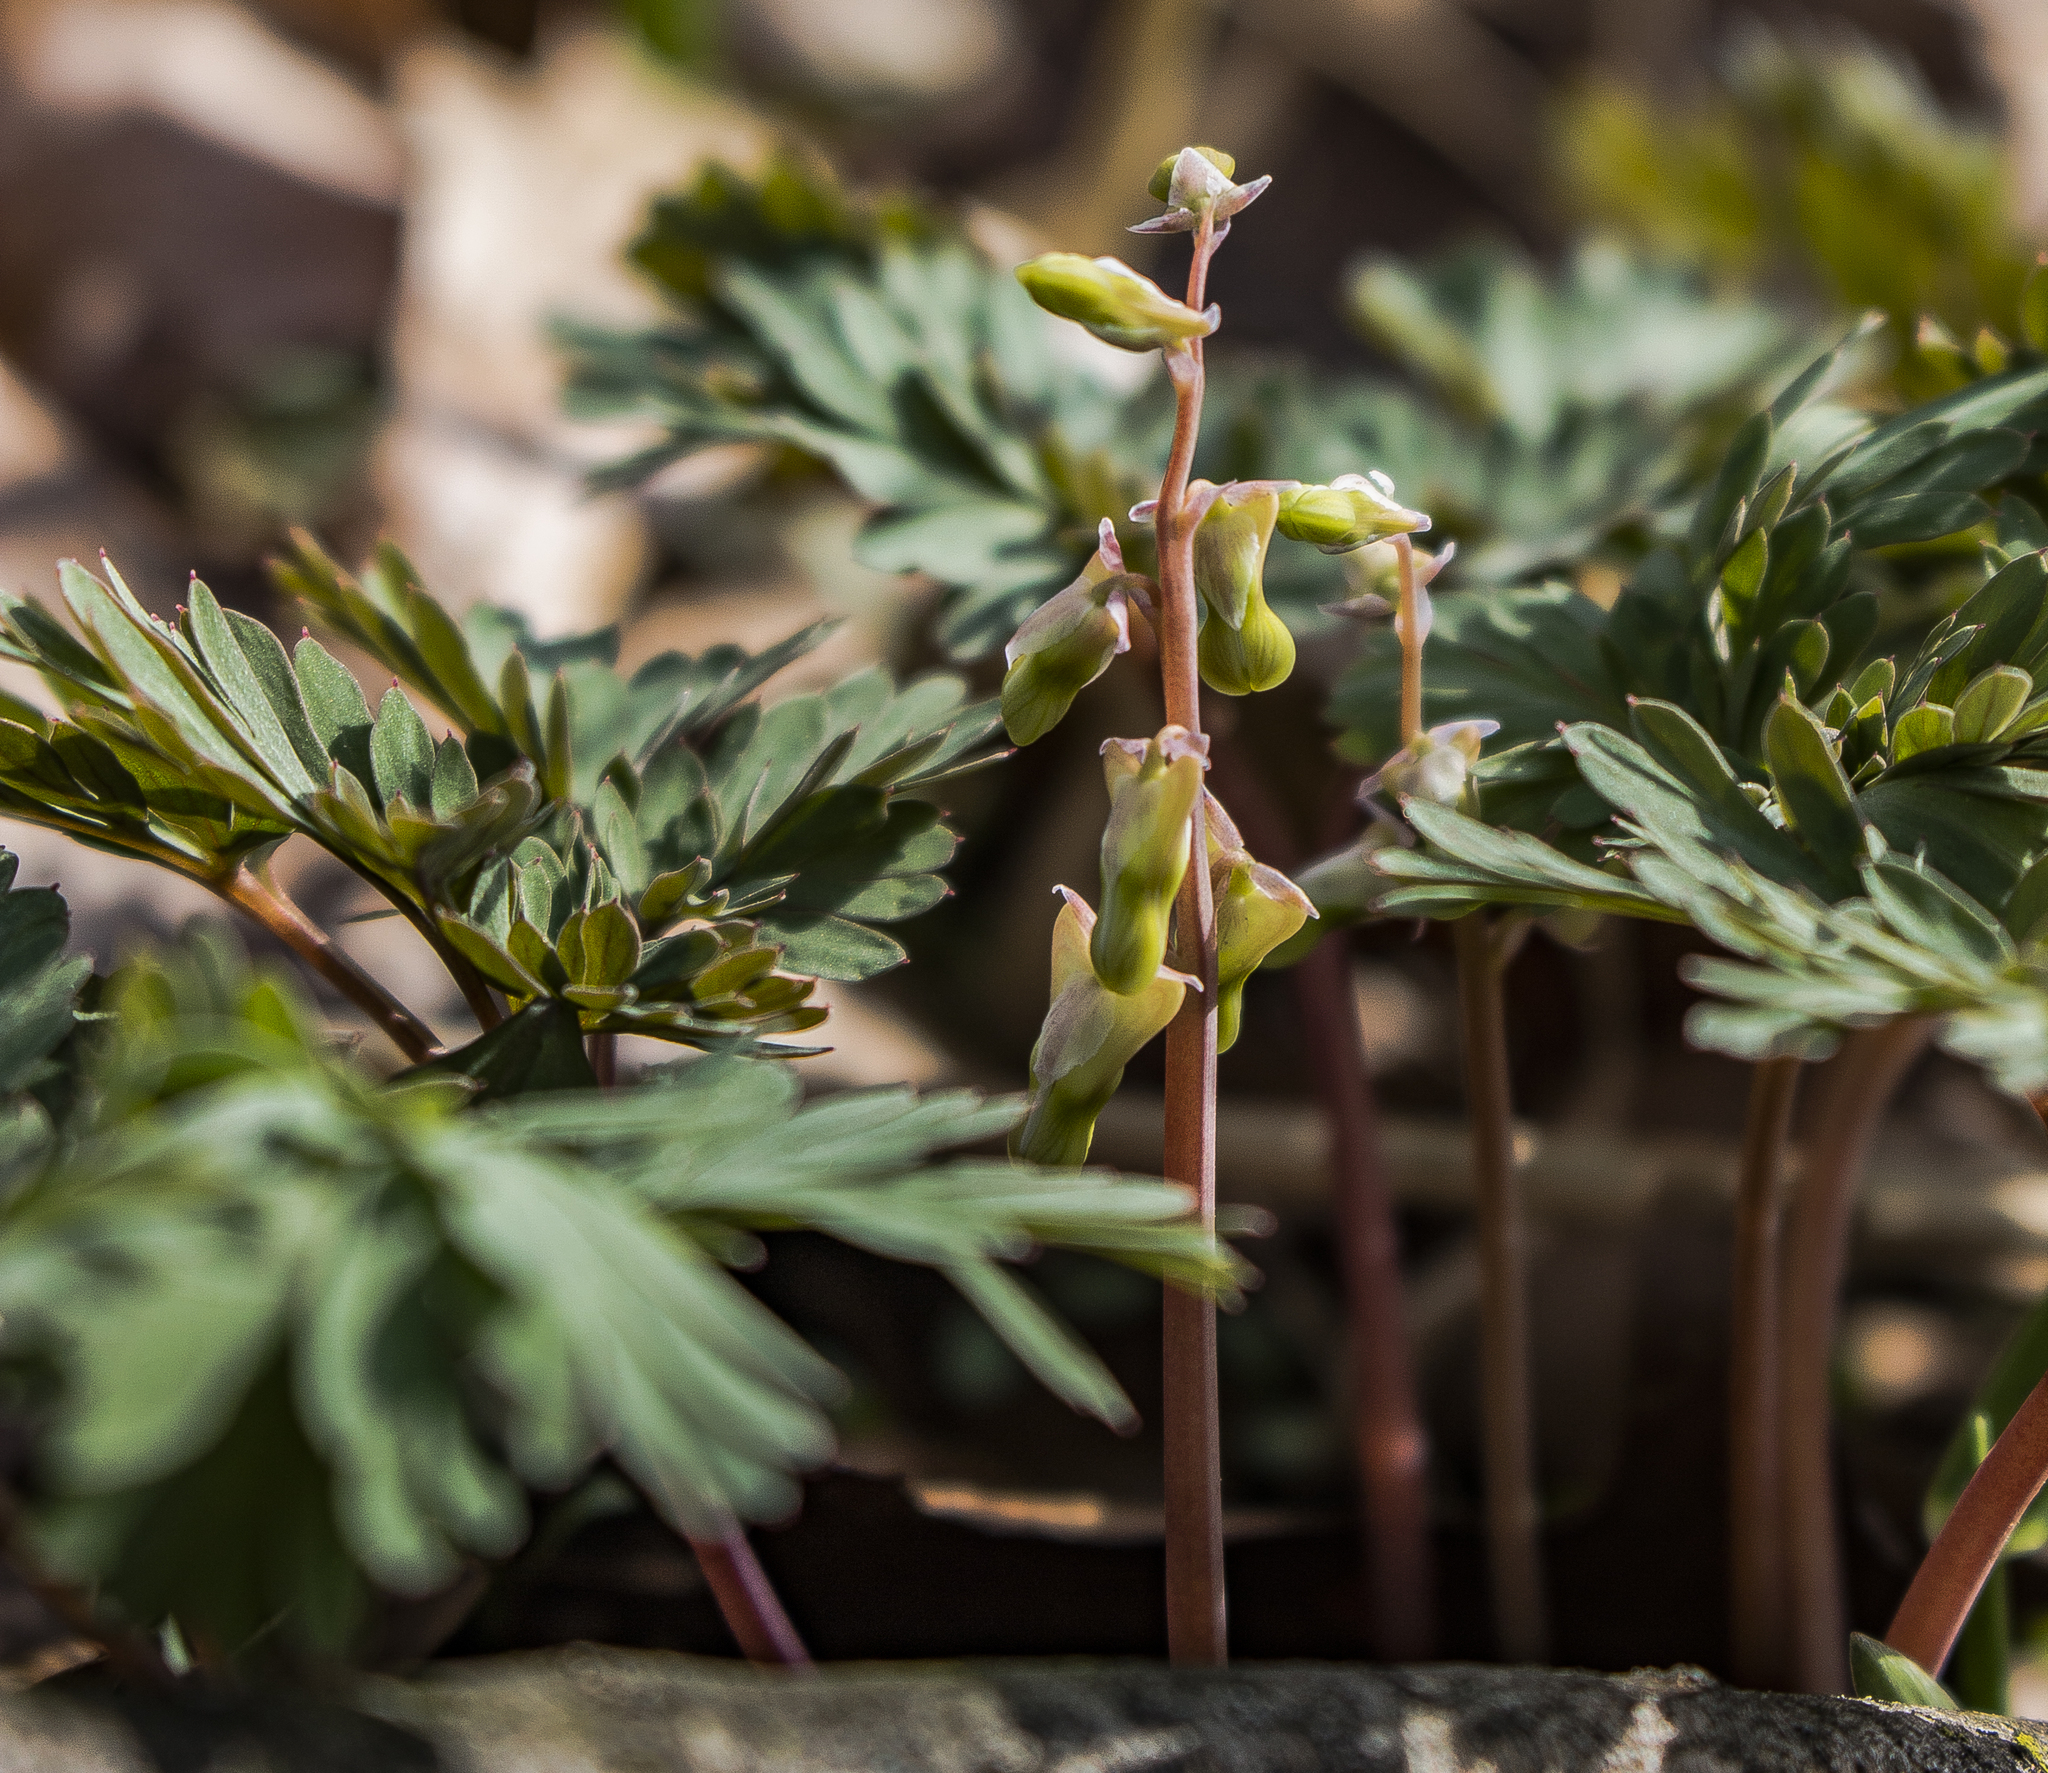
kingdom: Plantae
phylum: Tracheophyta
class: Magnoliopsida
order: Ranunculales
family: Papaveraceae
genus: Dicentra
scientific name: Dicentra cucullaria
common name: Dutchman's breeches
